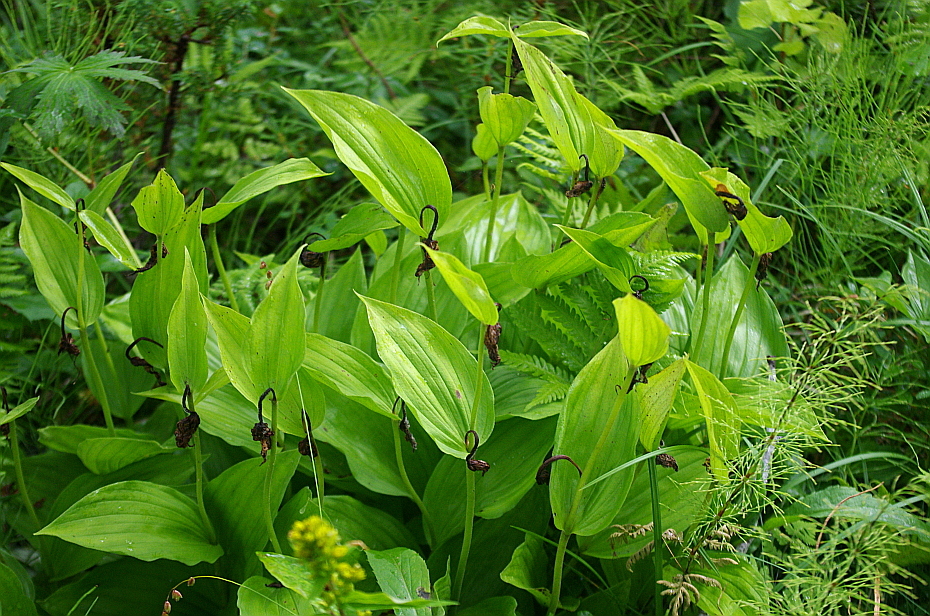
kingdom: Plantae
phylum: Tracheophyta
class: Liliopsida
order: Asparagales
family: Orchidaceae
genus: Cypripedium
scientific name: Cypripedium calceolus
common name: Lady's-slipper
